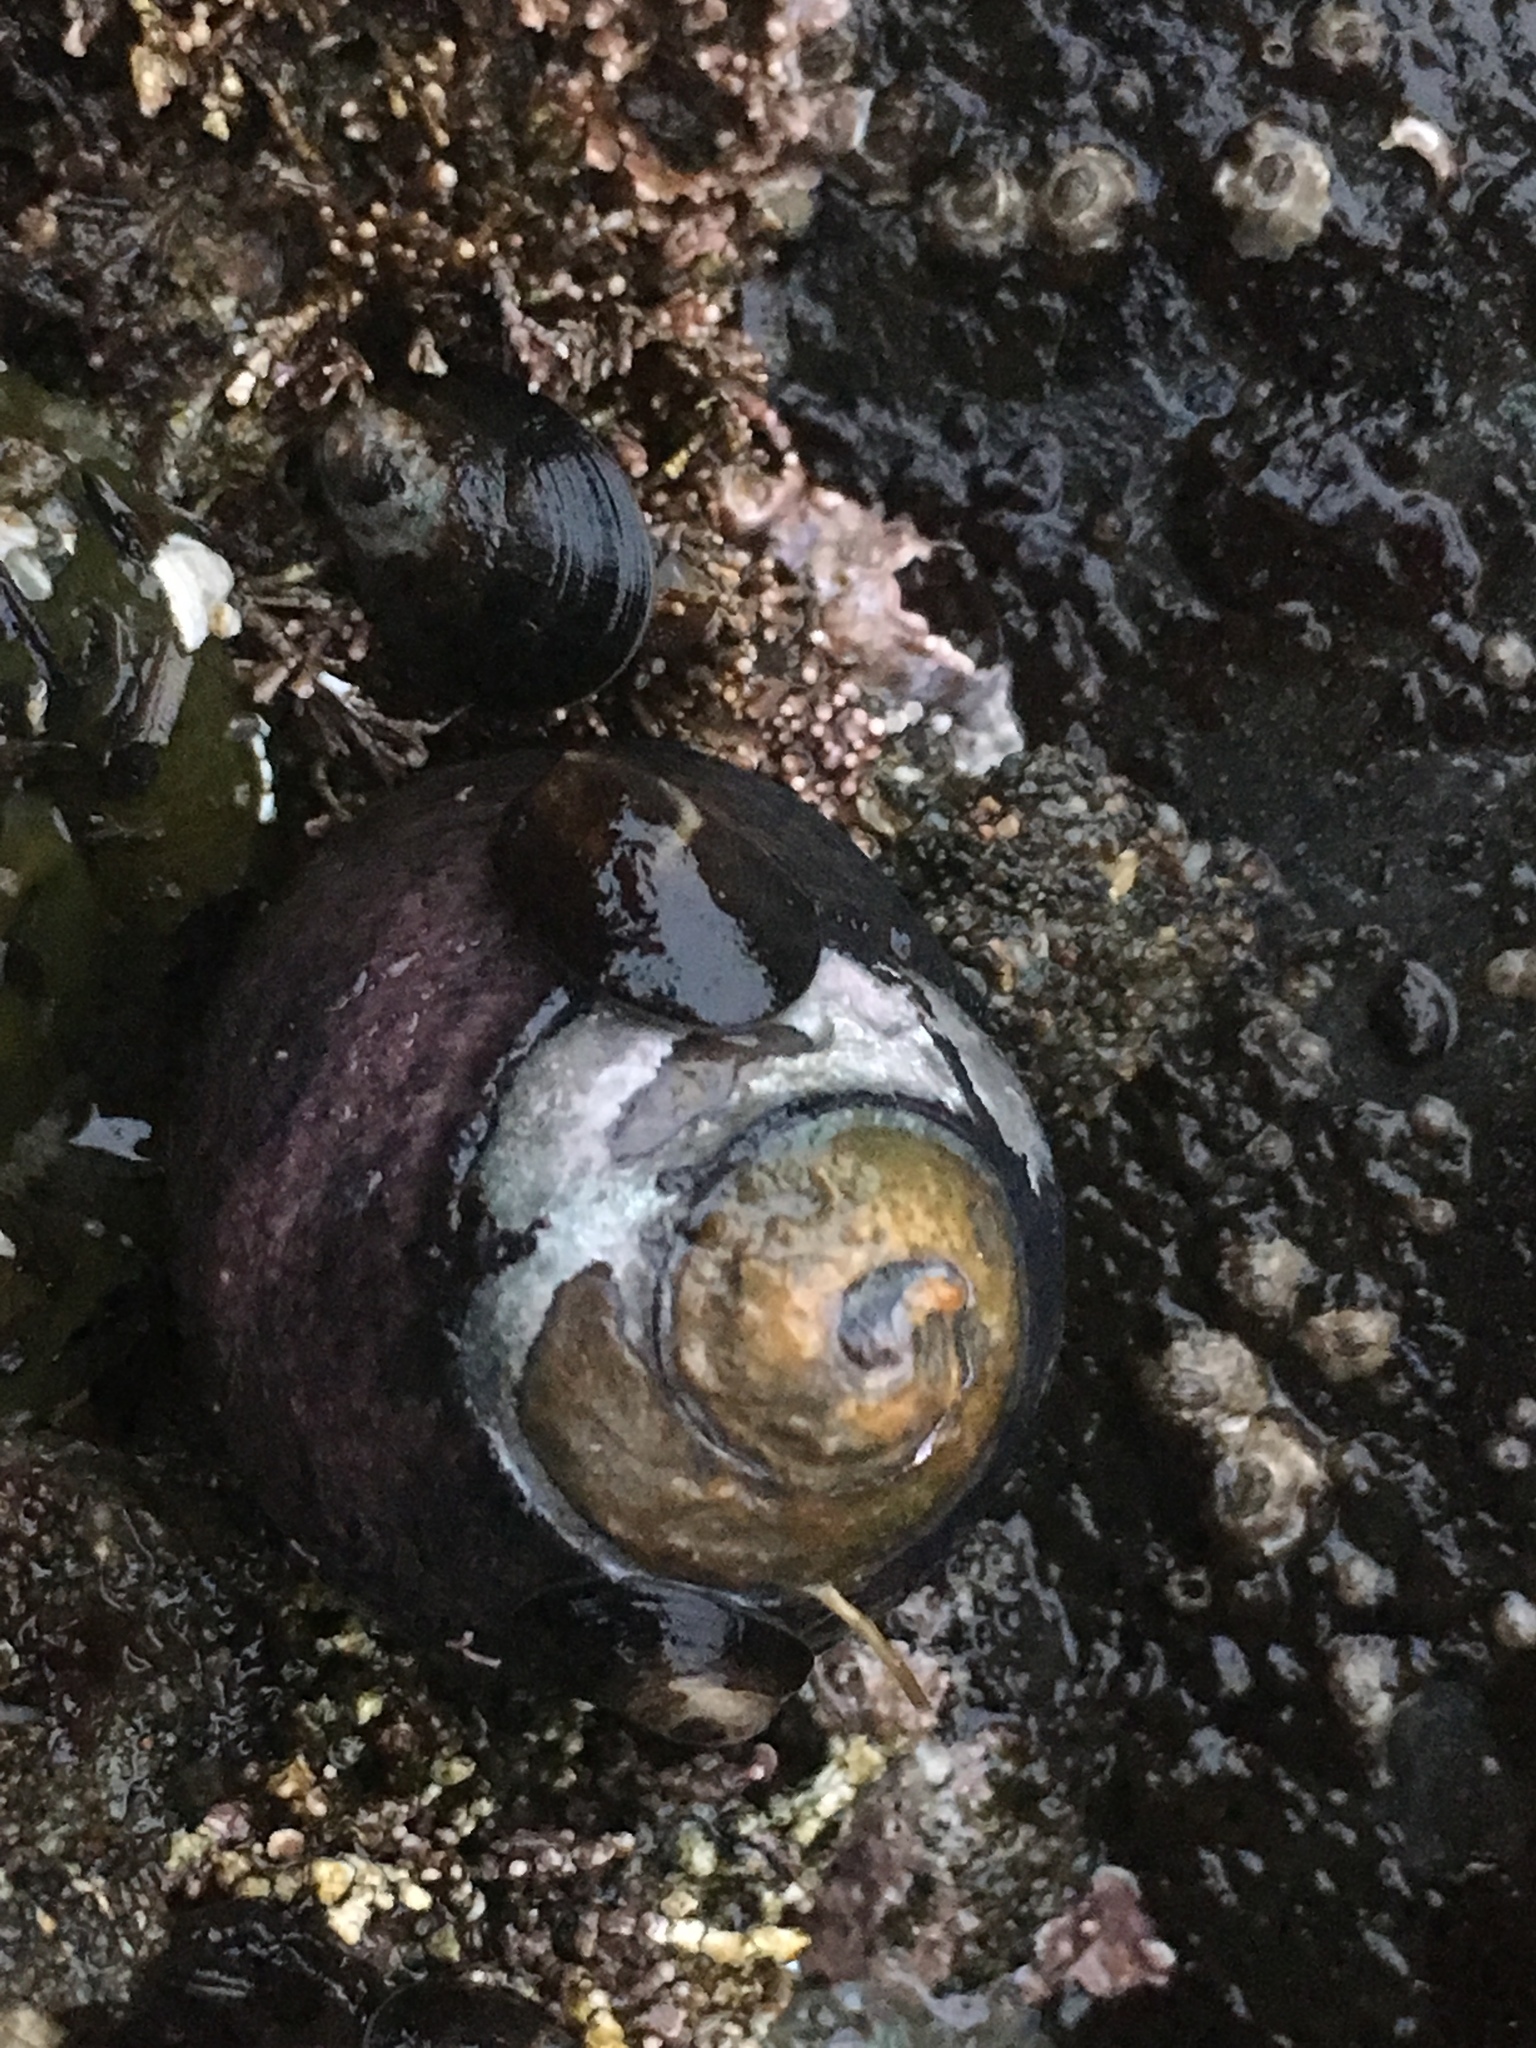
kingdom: Animalia
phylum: Mollusca
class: Gastropoda
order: Trochida
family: Tegulidae
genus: Tegula
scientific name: Tegula funebralis
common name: Black tegula
